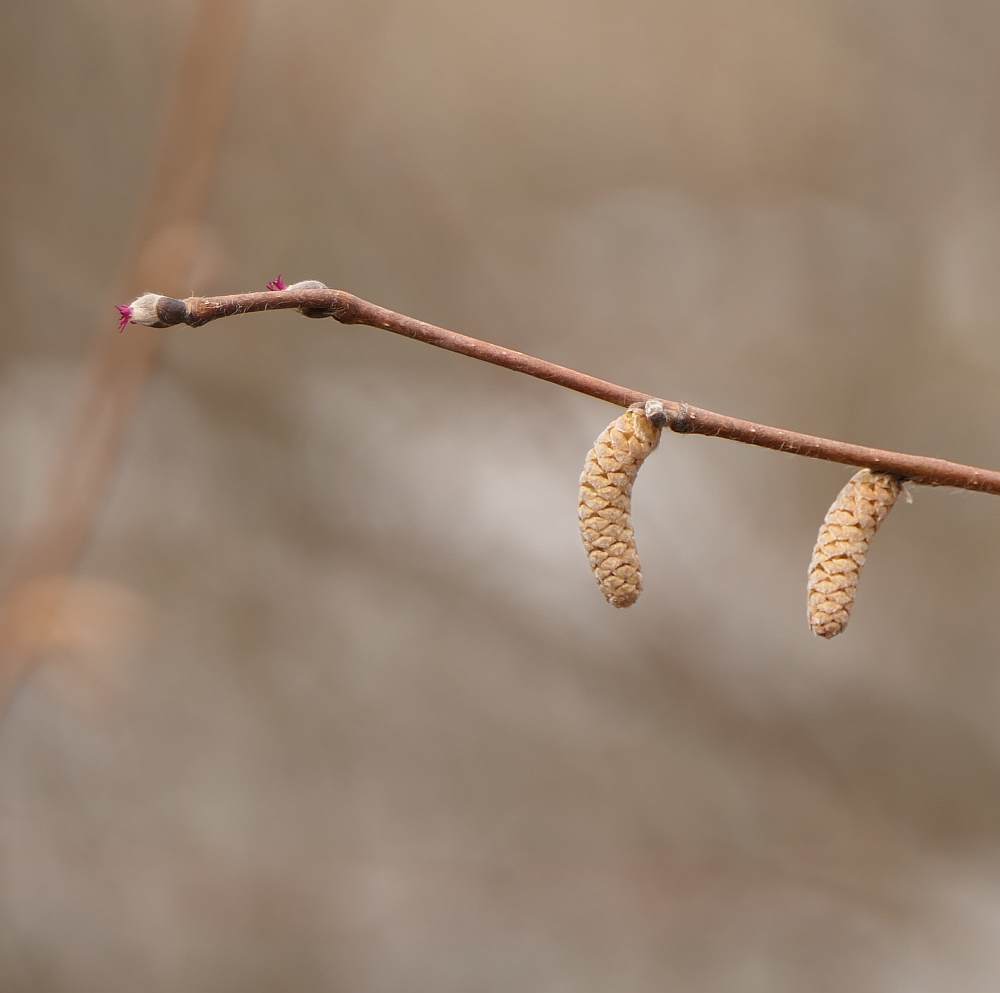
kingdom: Plantae
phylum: Tracheophyta
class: Magnoliopsida
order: Fagales
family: Betulaceae
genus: Corylus
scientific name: Corylus cornuta
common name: Beaked hazel
